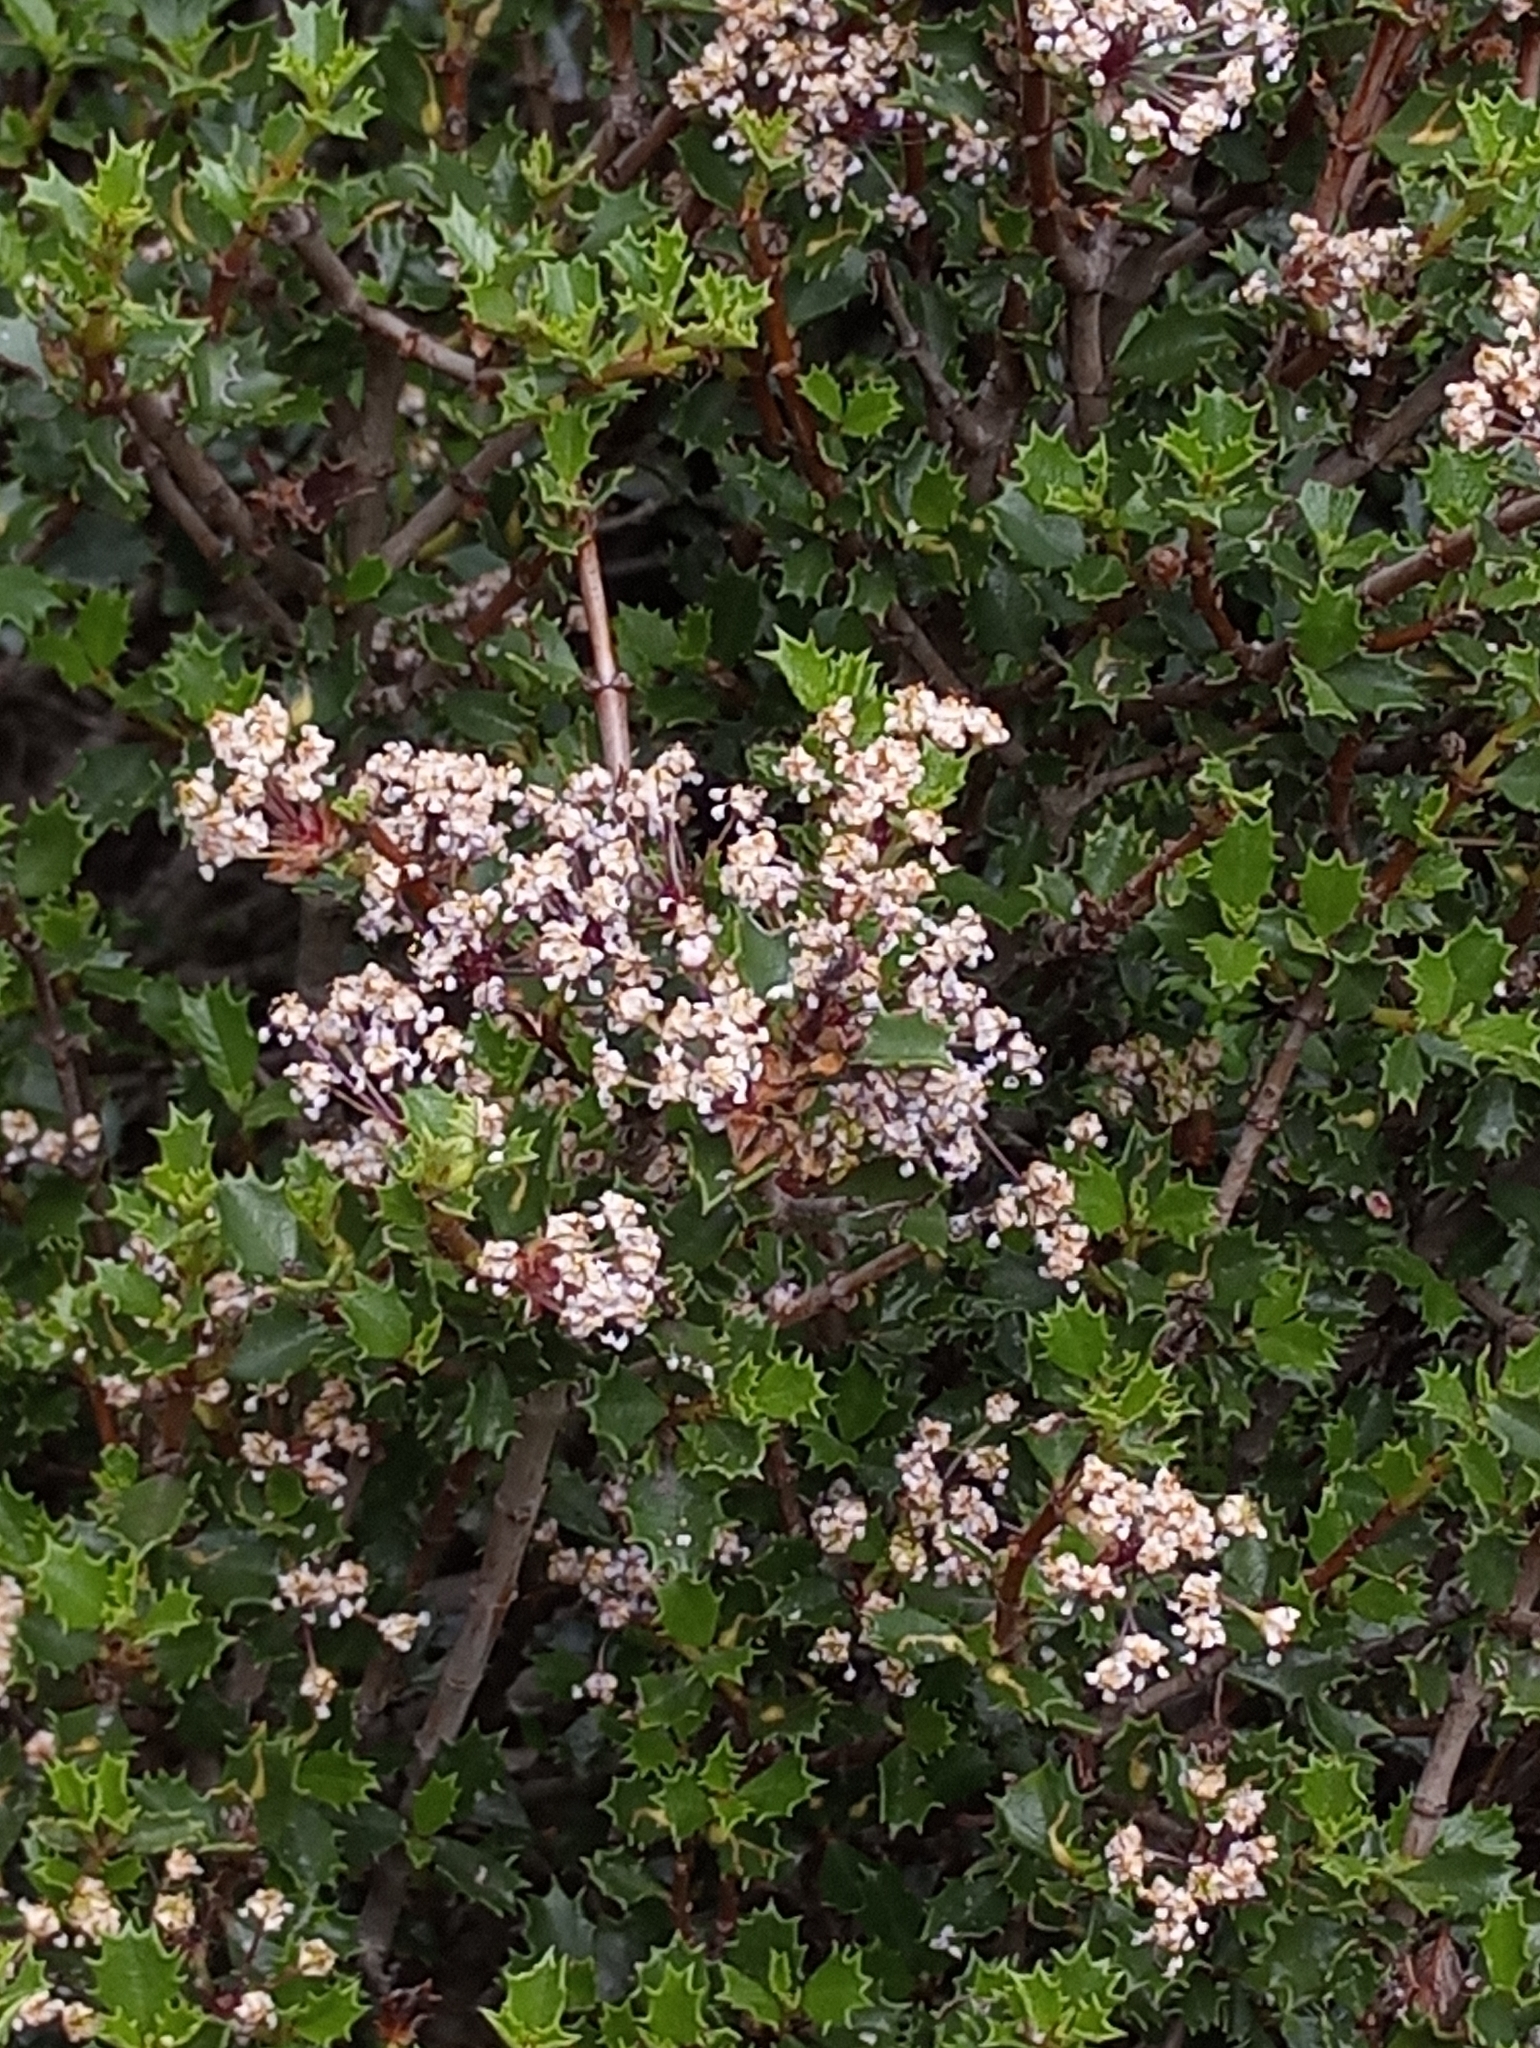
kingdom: Plantae
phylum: Tracheophyta
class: Magnoliopsida
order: Rosales
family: Rhamnaceae
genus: Ceanothus
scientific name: Ceanothus jepsonii
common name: Muskbrush
